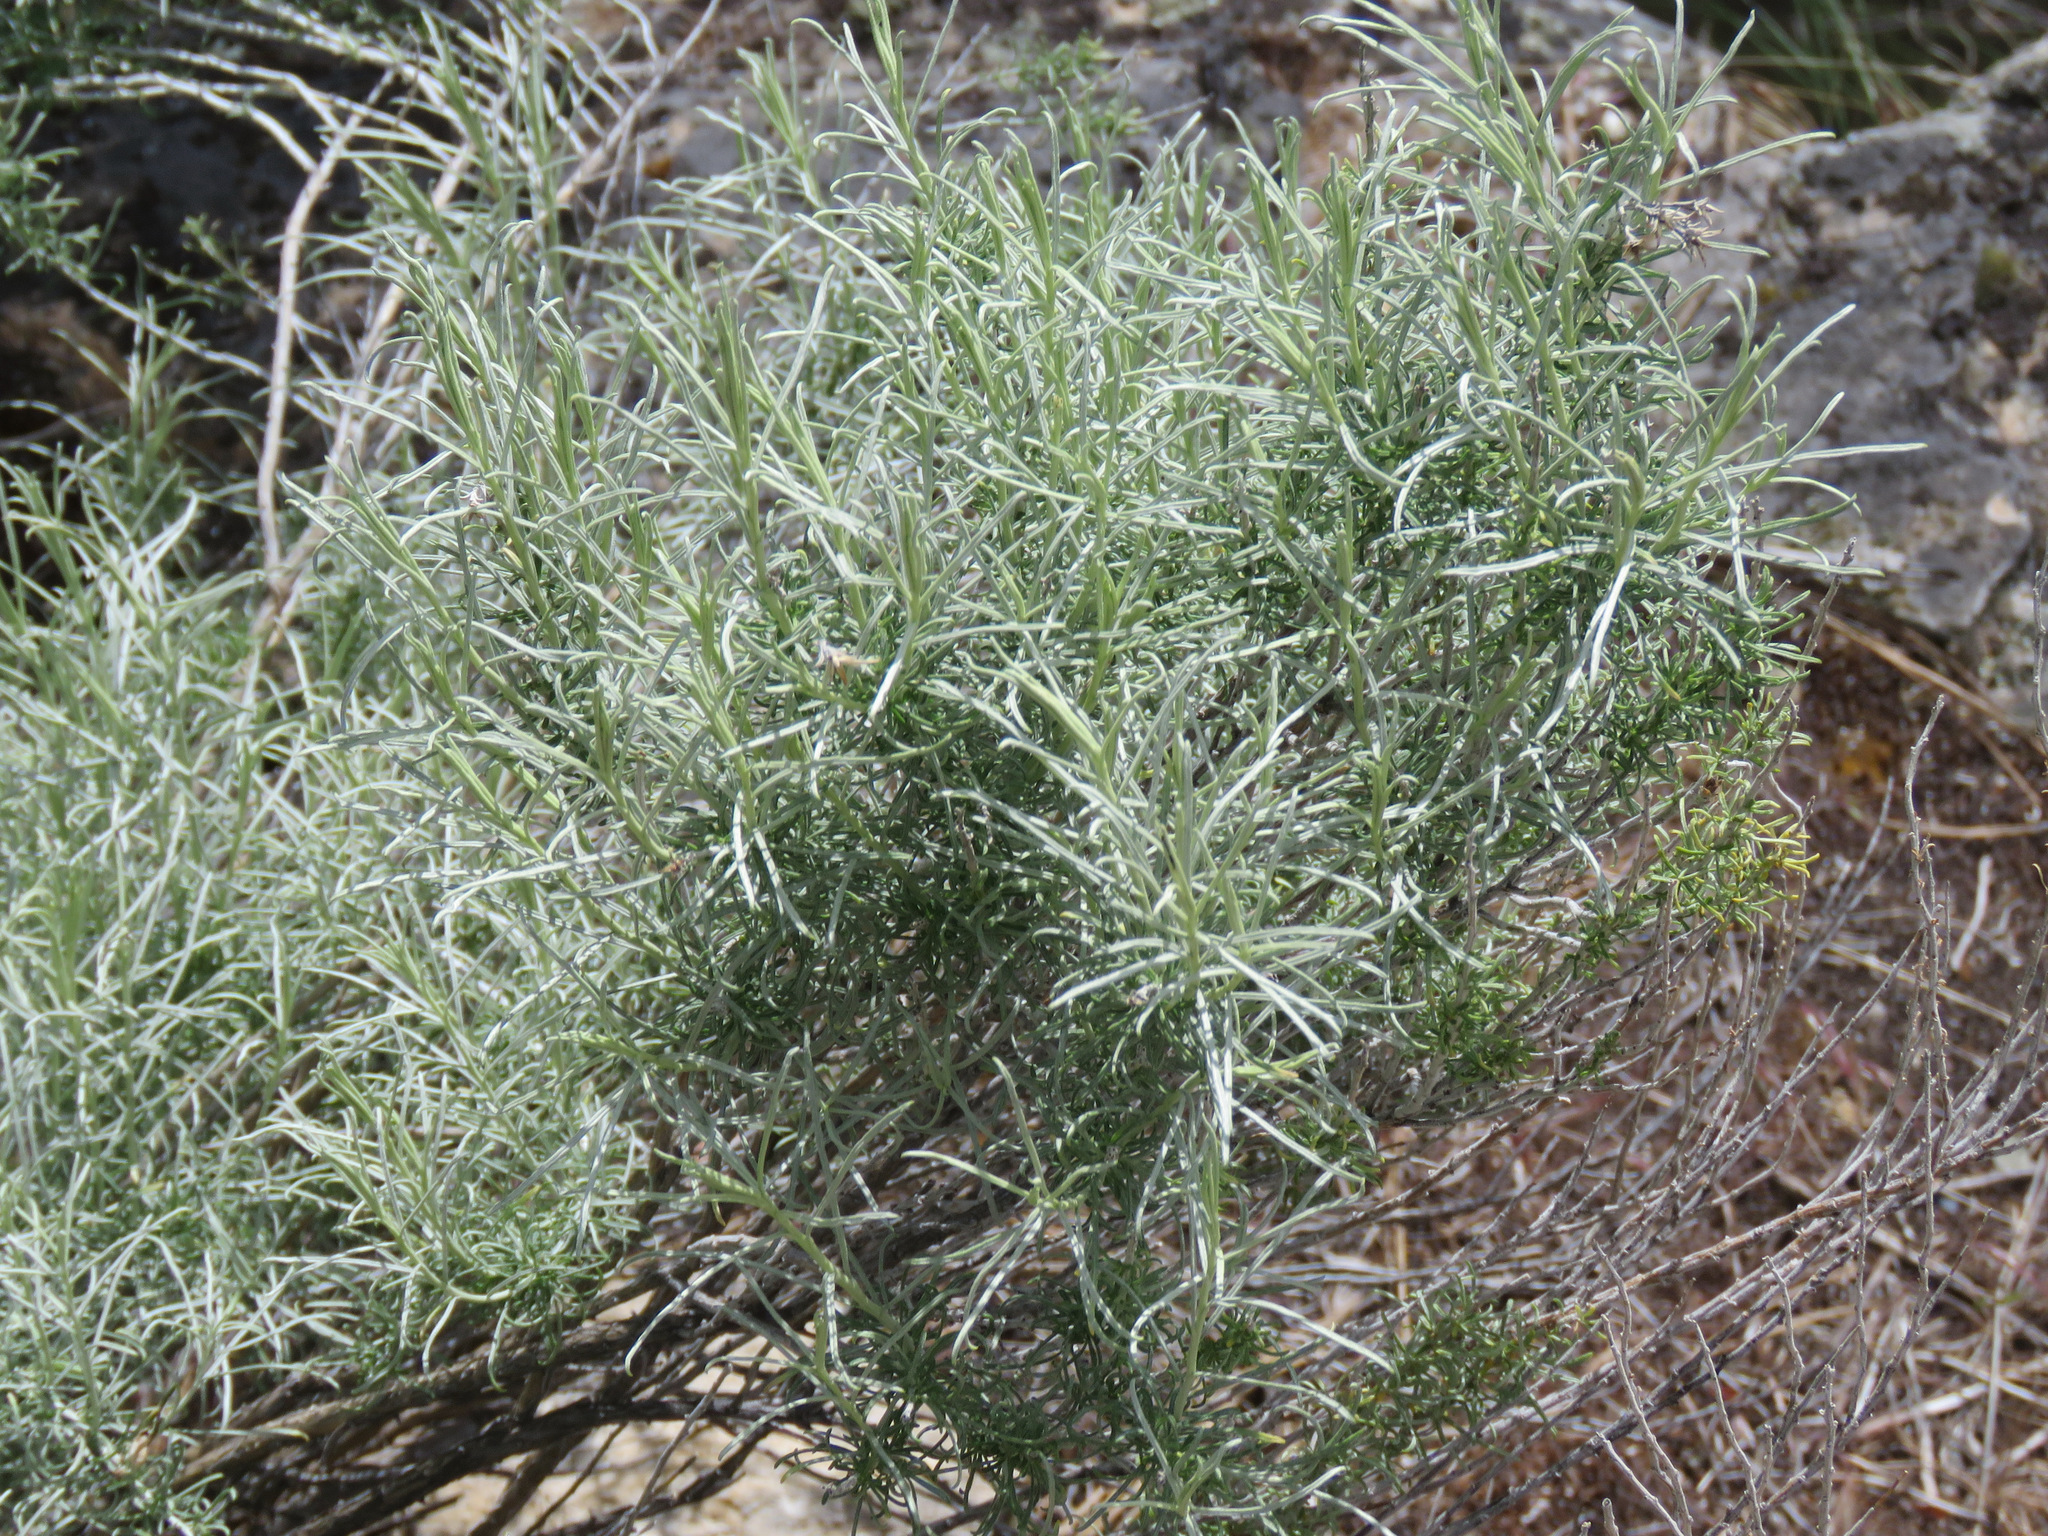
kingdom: Plantae
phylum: Tracheophyta
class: Magnoliopsida
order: Asterales
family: Asteraceae
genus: Ericameria
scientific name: Ericameria nauseosa
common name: Rubber rabbitbrush
